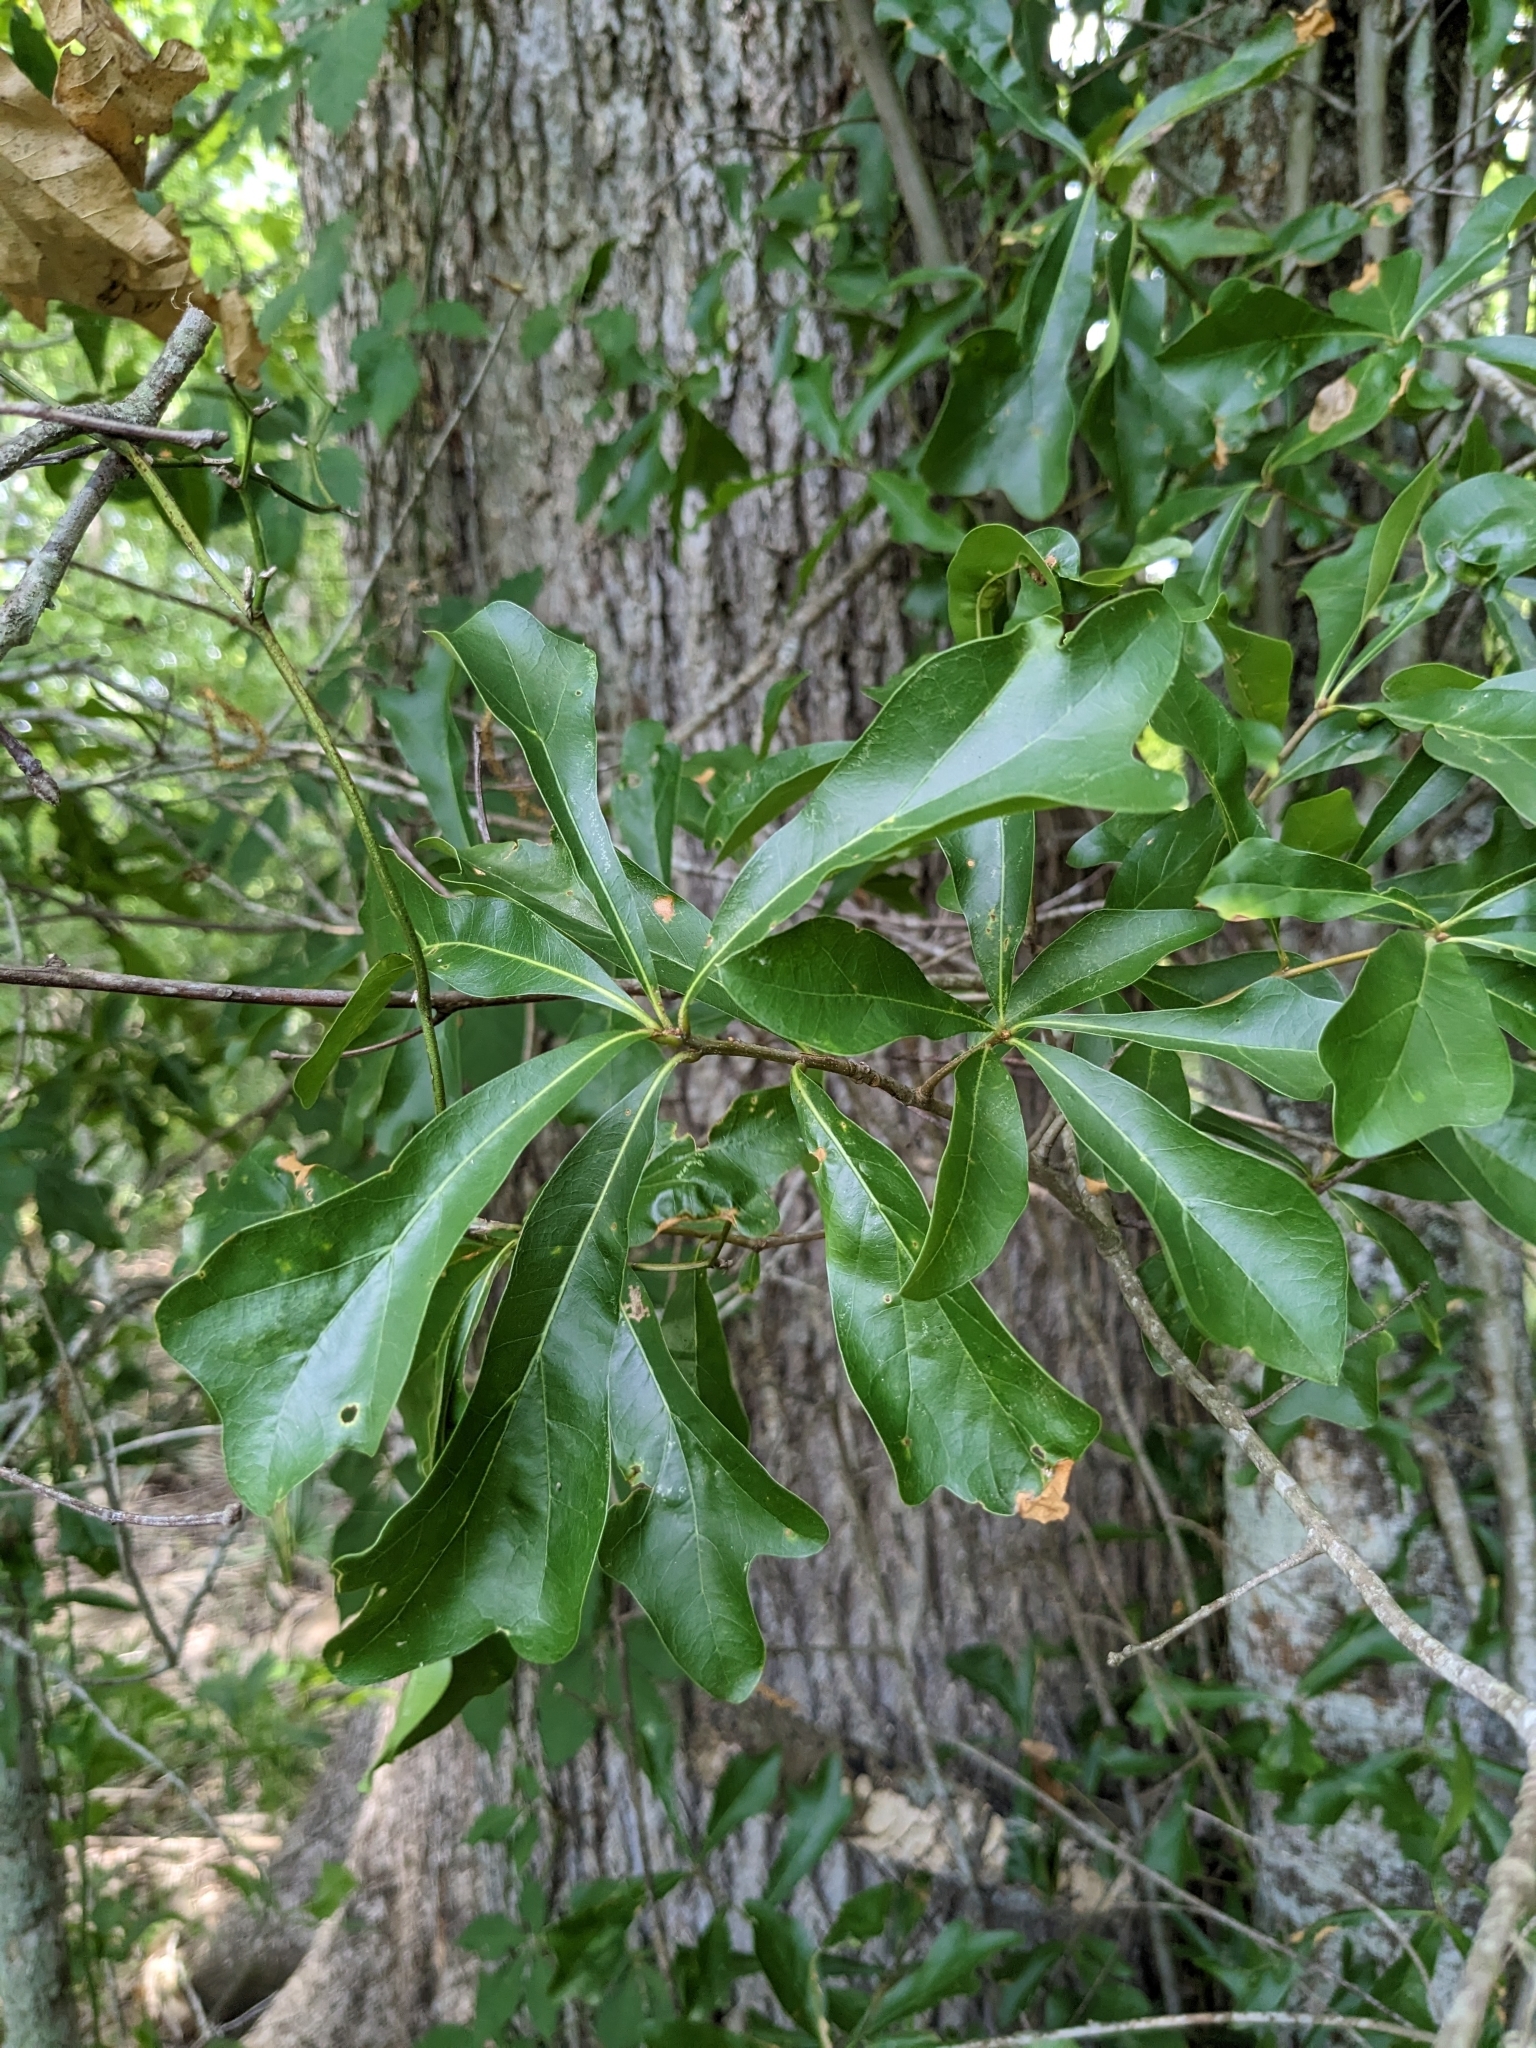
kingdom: Plantae
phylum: Tracheophyta
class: Magnoliopsida
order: Fagales
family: Fagaceae
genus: Quercus
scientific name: Quercus nigra
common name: Water oak
